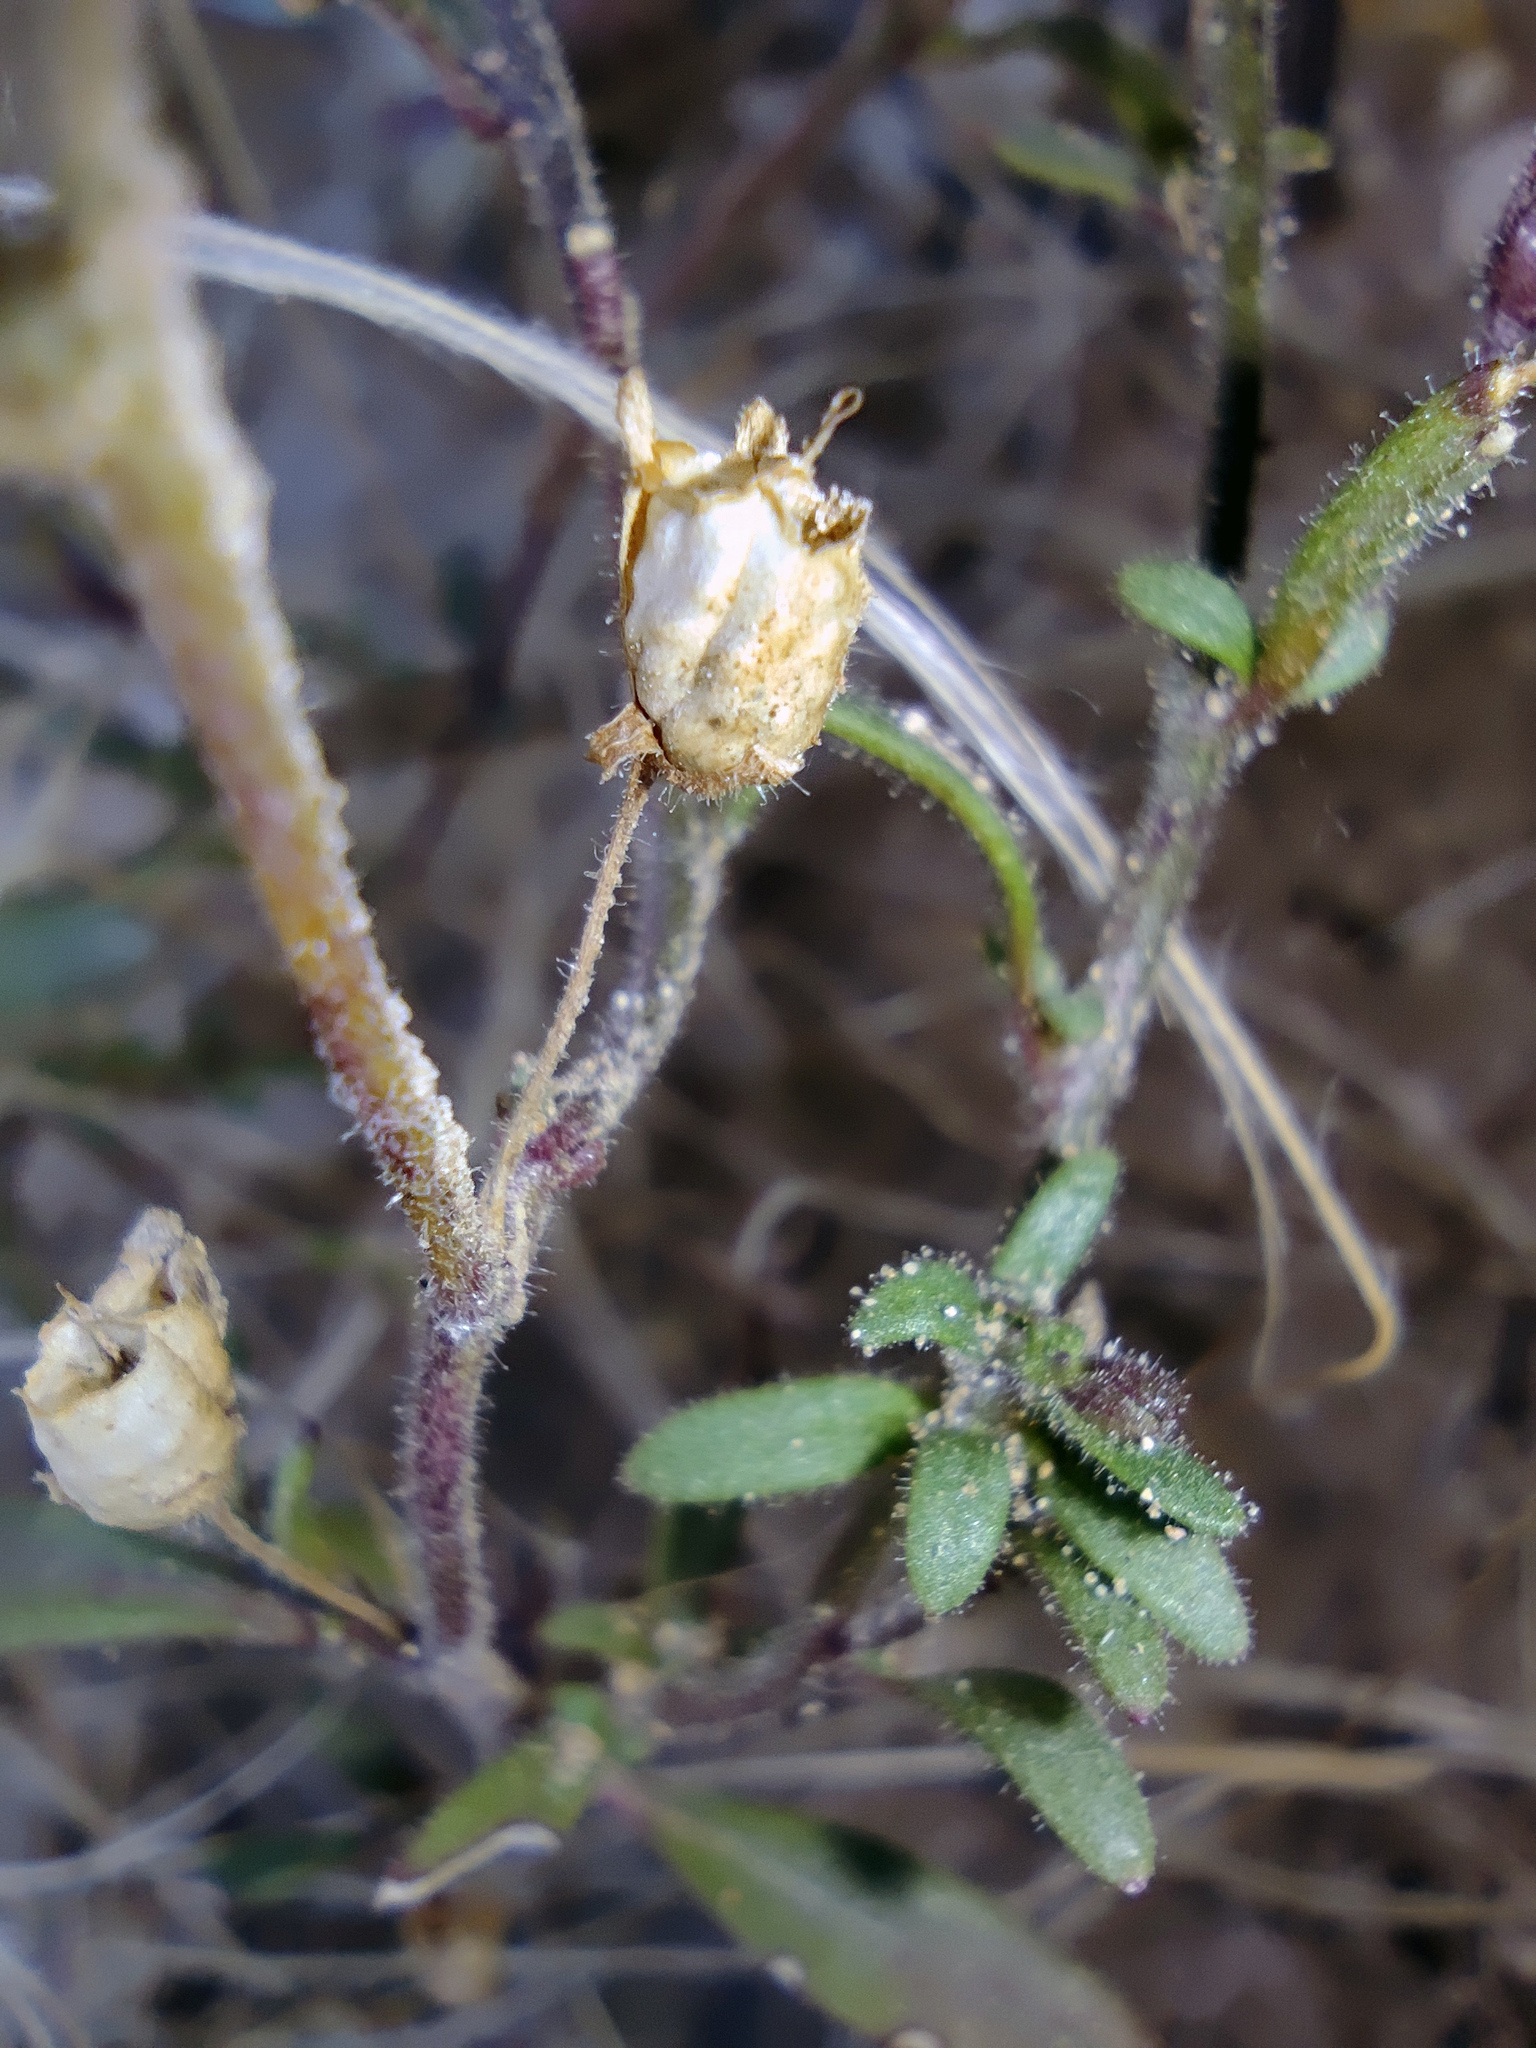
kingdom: Plantae
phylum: Tracheophyta
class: Magnoliopsida
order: Lamiales
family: Plantaginaceae
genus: Chaenorhinum
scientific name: Chaenorhinum minus
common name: Dwarf snapdragon
